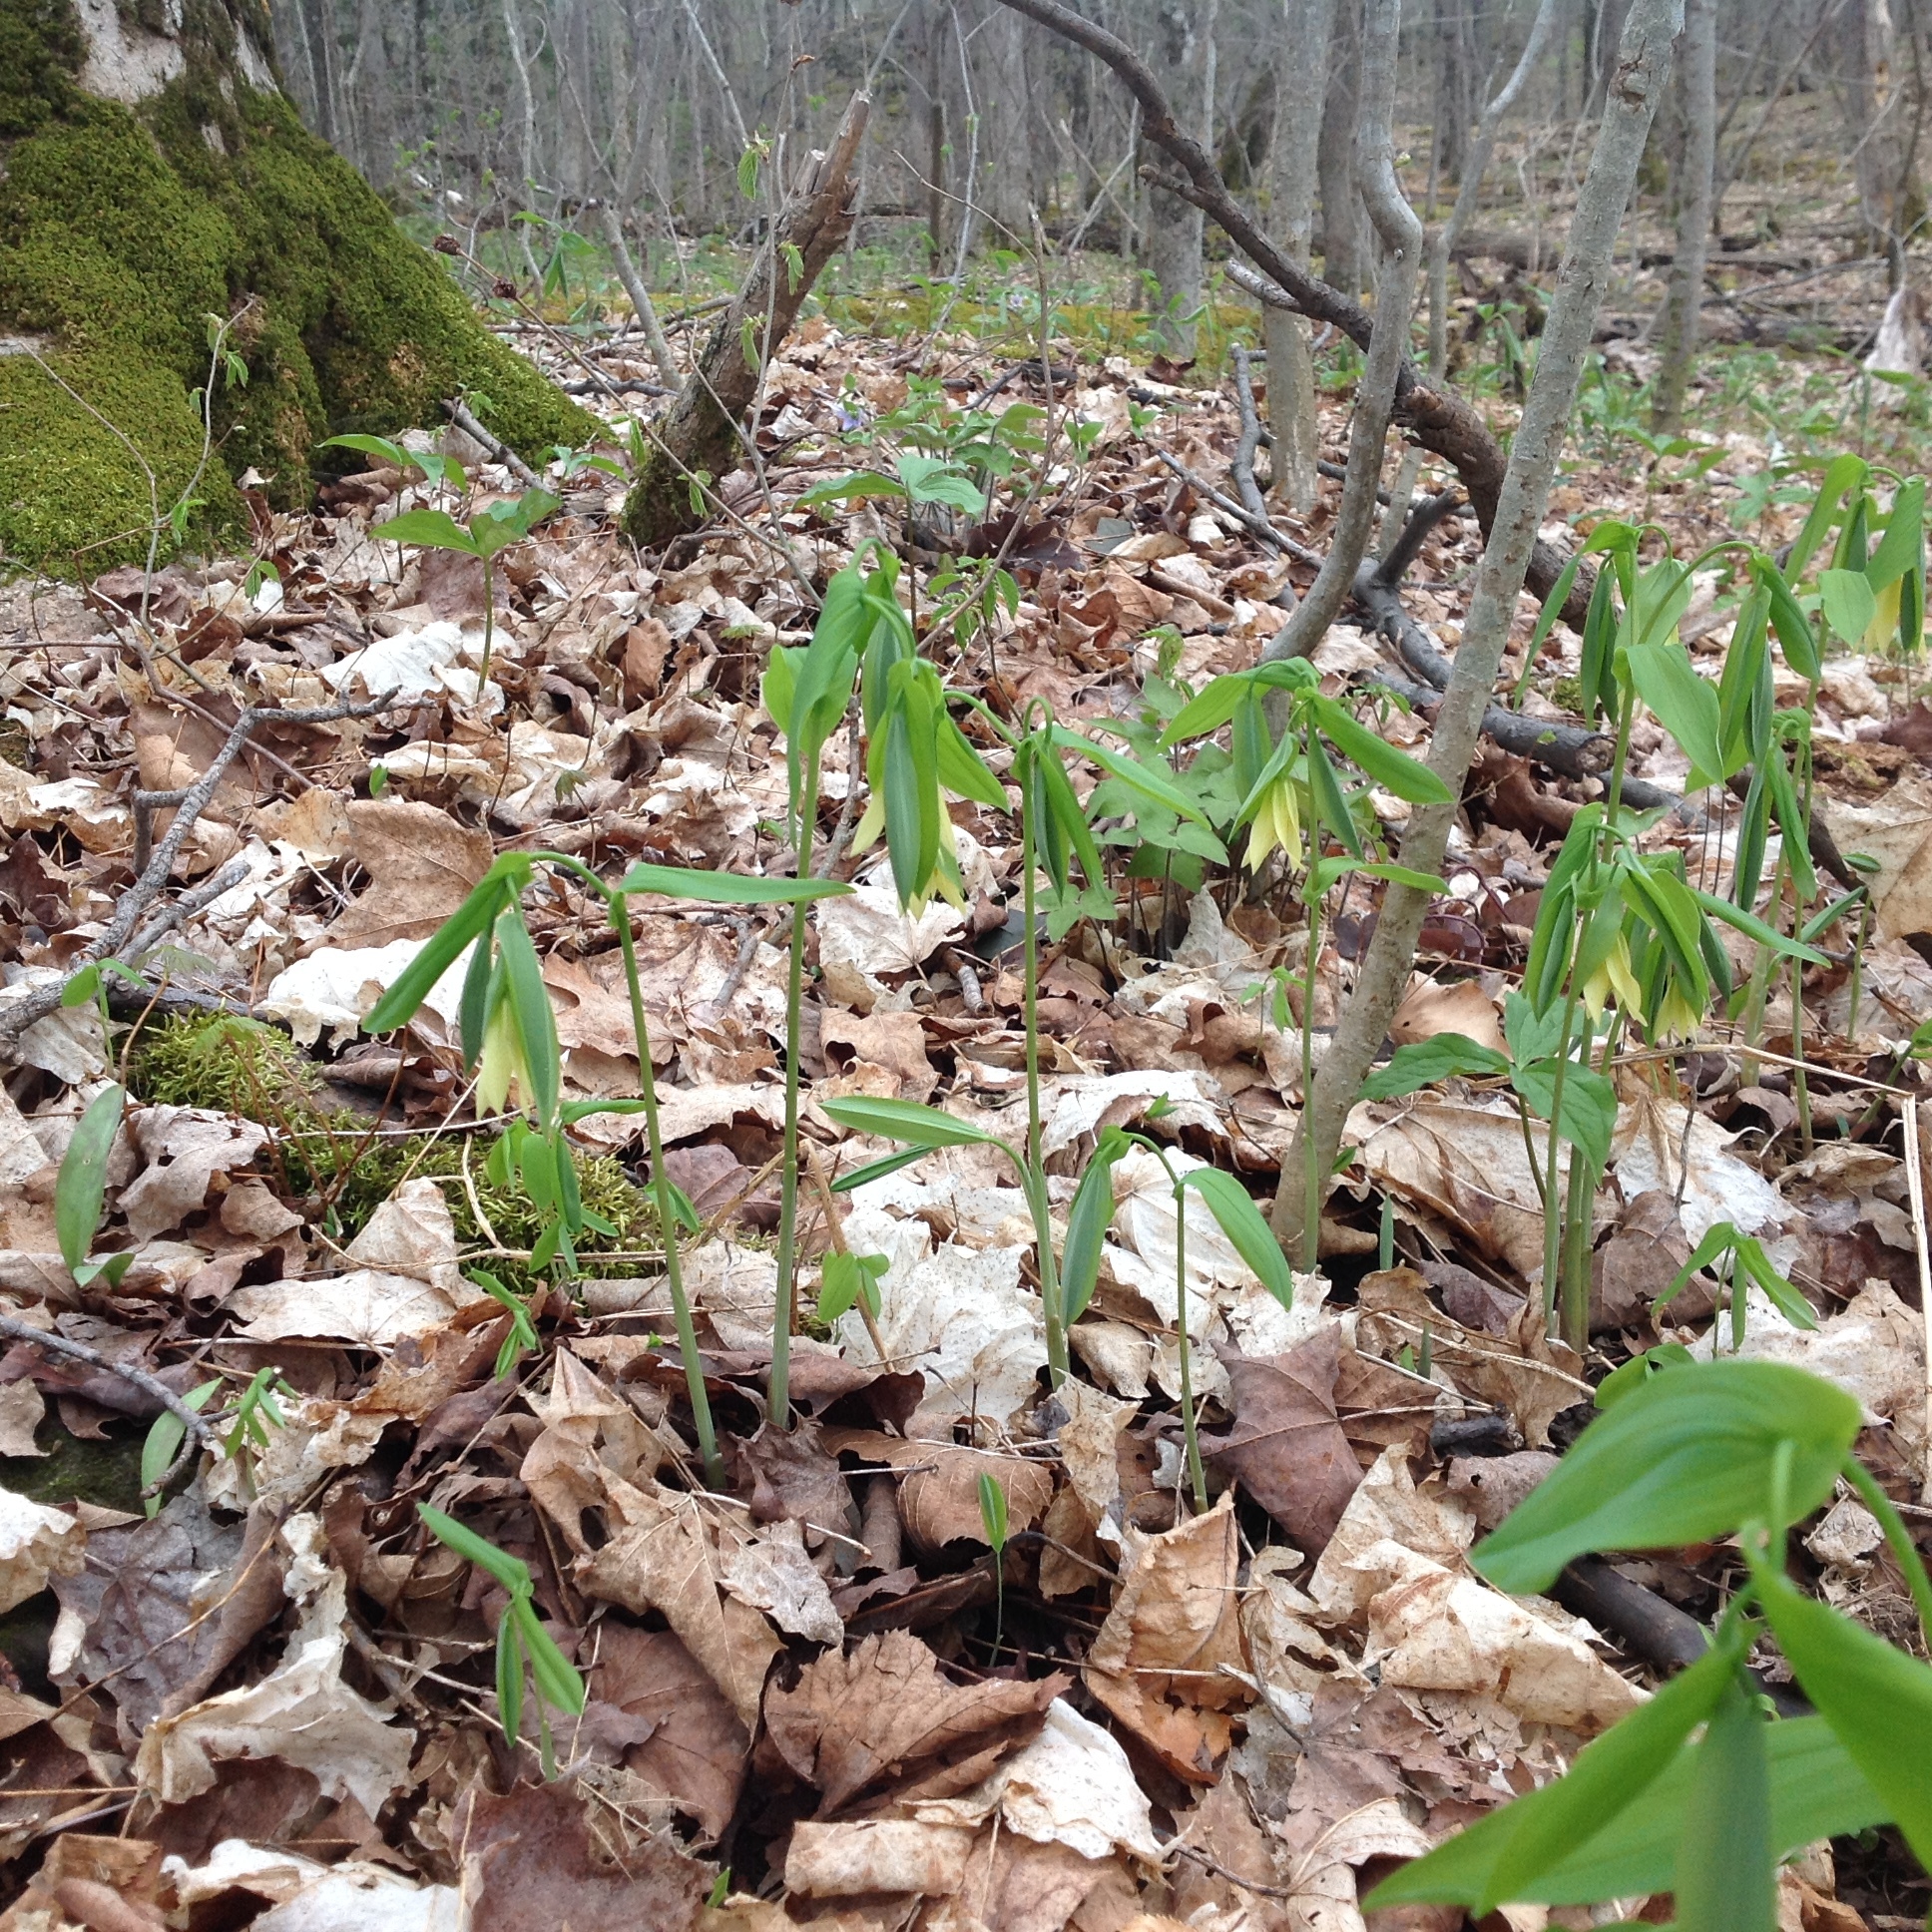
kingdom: Plantae
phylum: Tracheophyta
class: Liliopsida
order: Liliales
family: Colchicaceae
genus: Uvularia
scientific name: Uvularia grandiflora
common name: Bellwort
